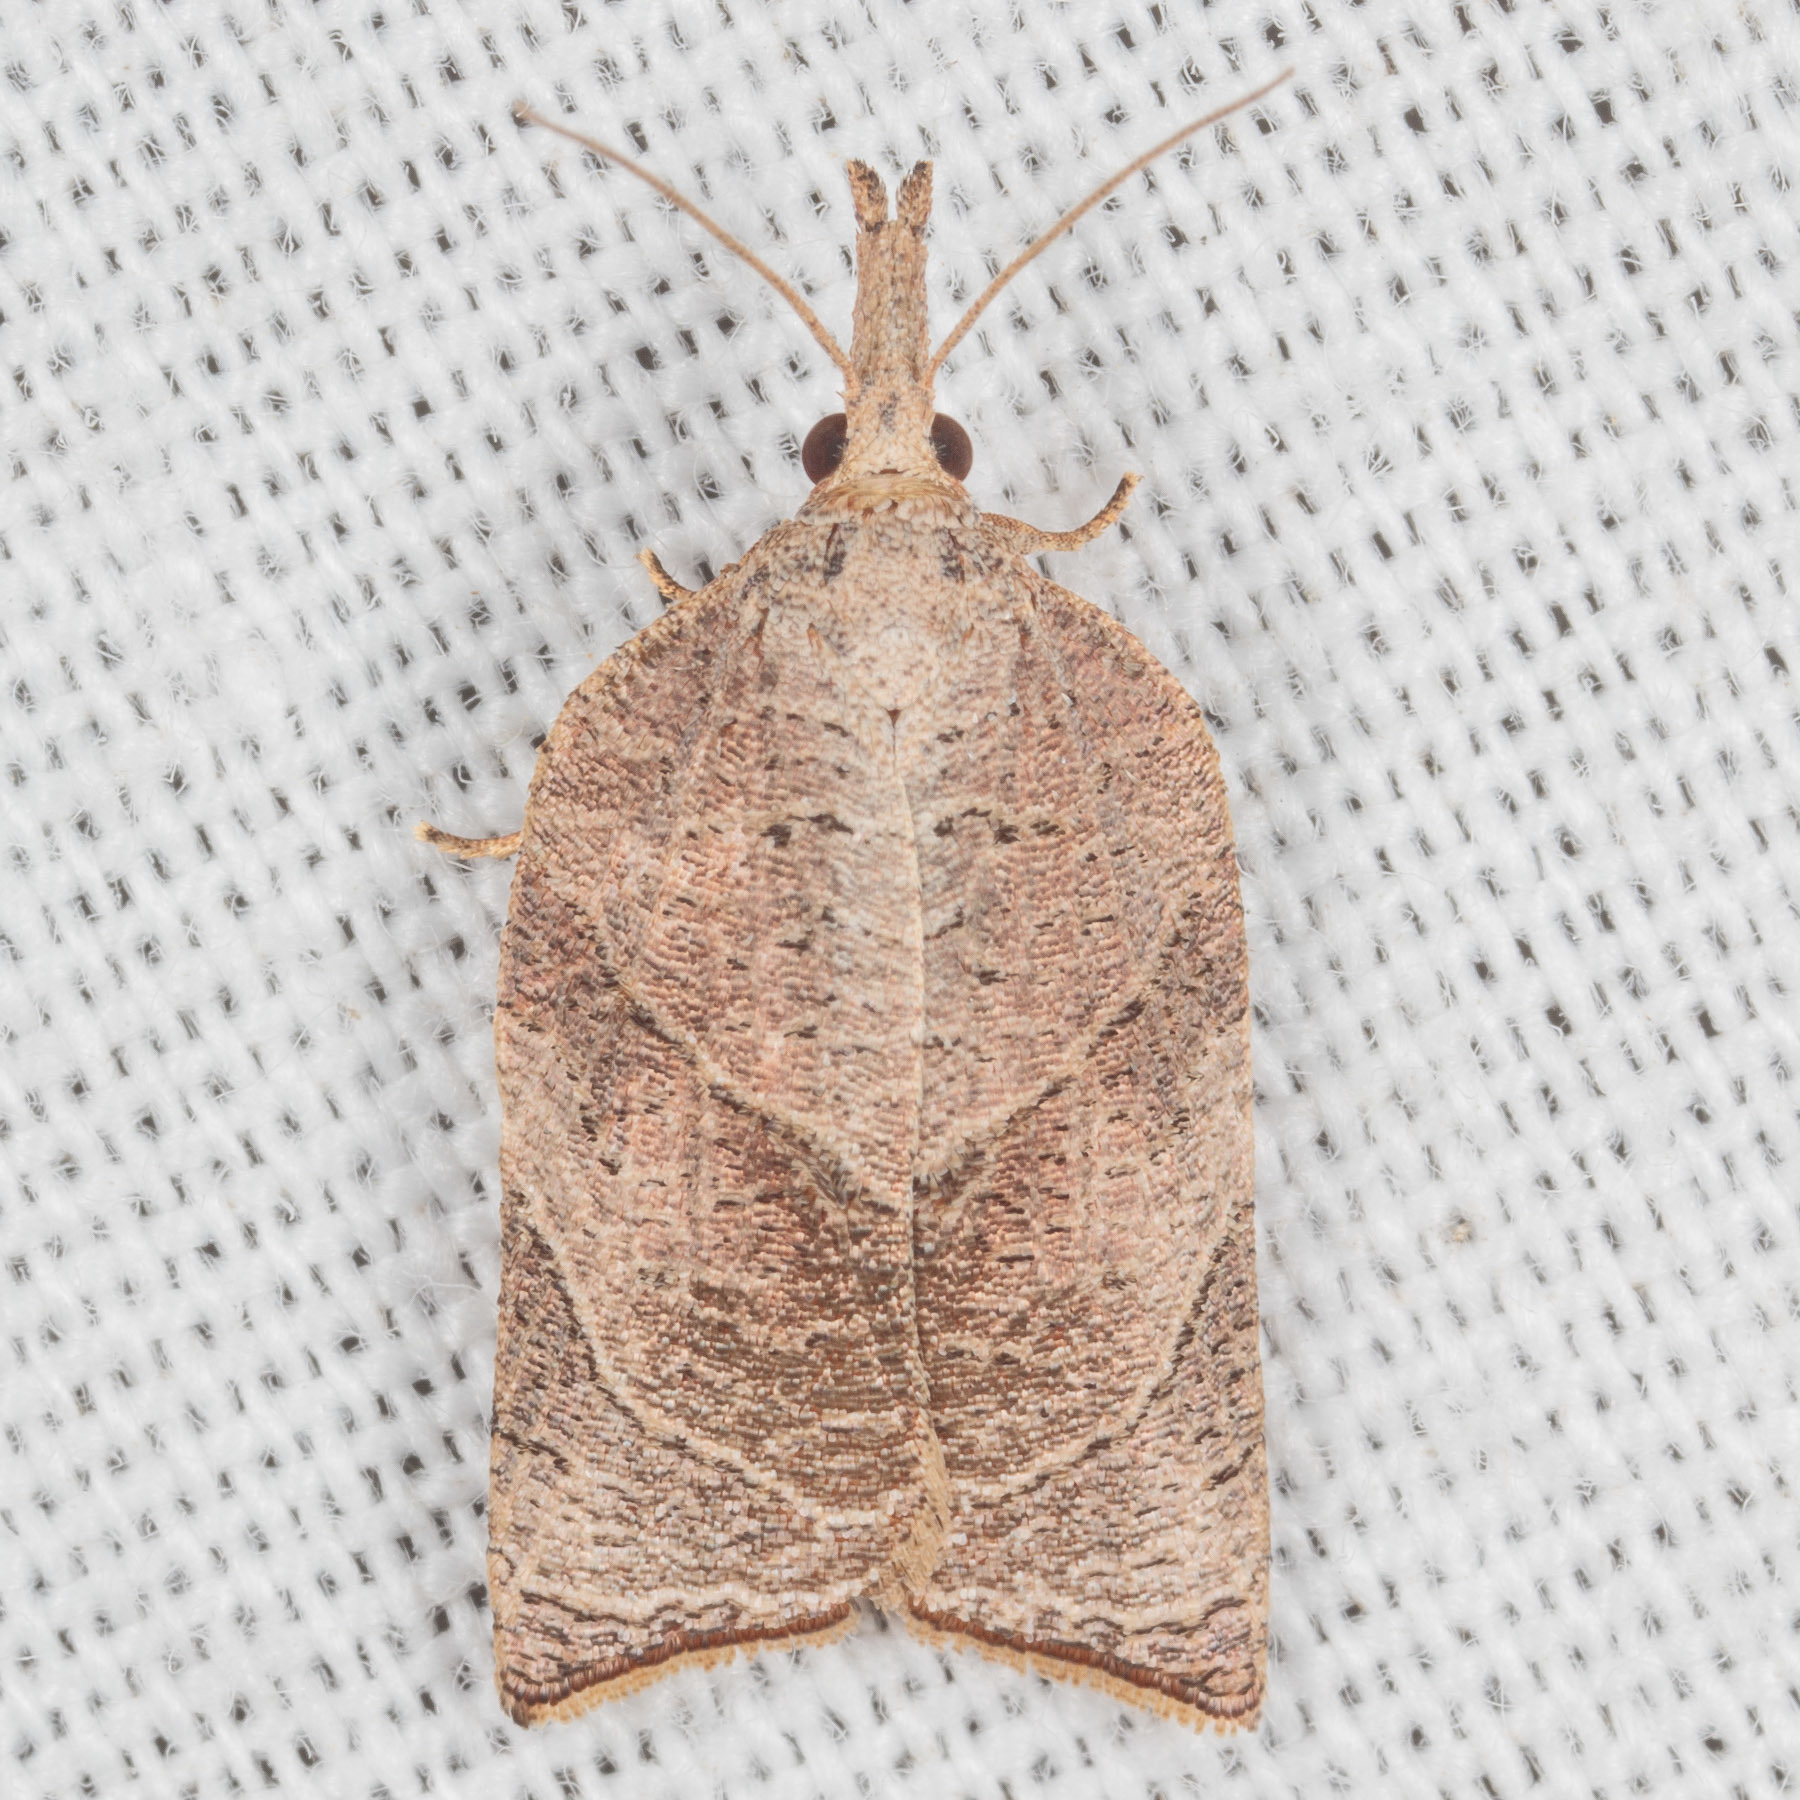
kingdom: Animalia
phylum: Arthropoda
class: Insecta
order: Lepidoptera
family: Tortricidae
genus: Platynota
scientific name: Platynota rostrana
